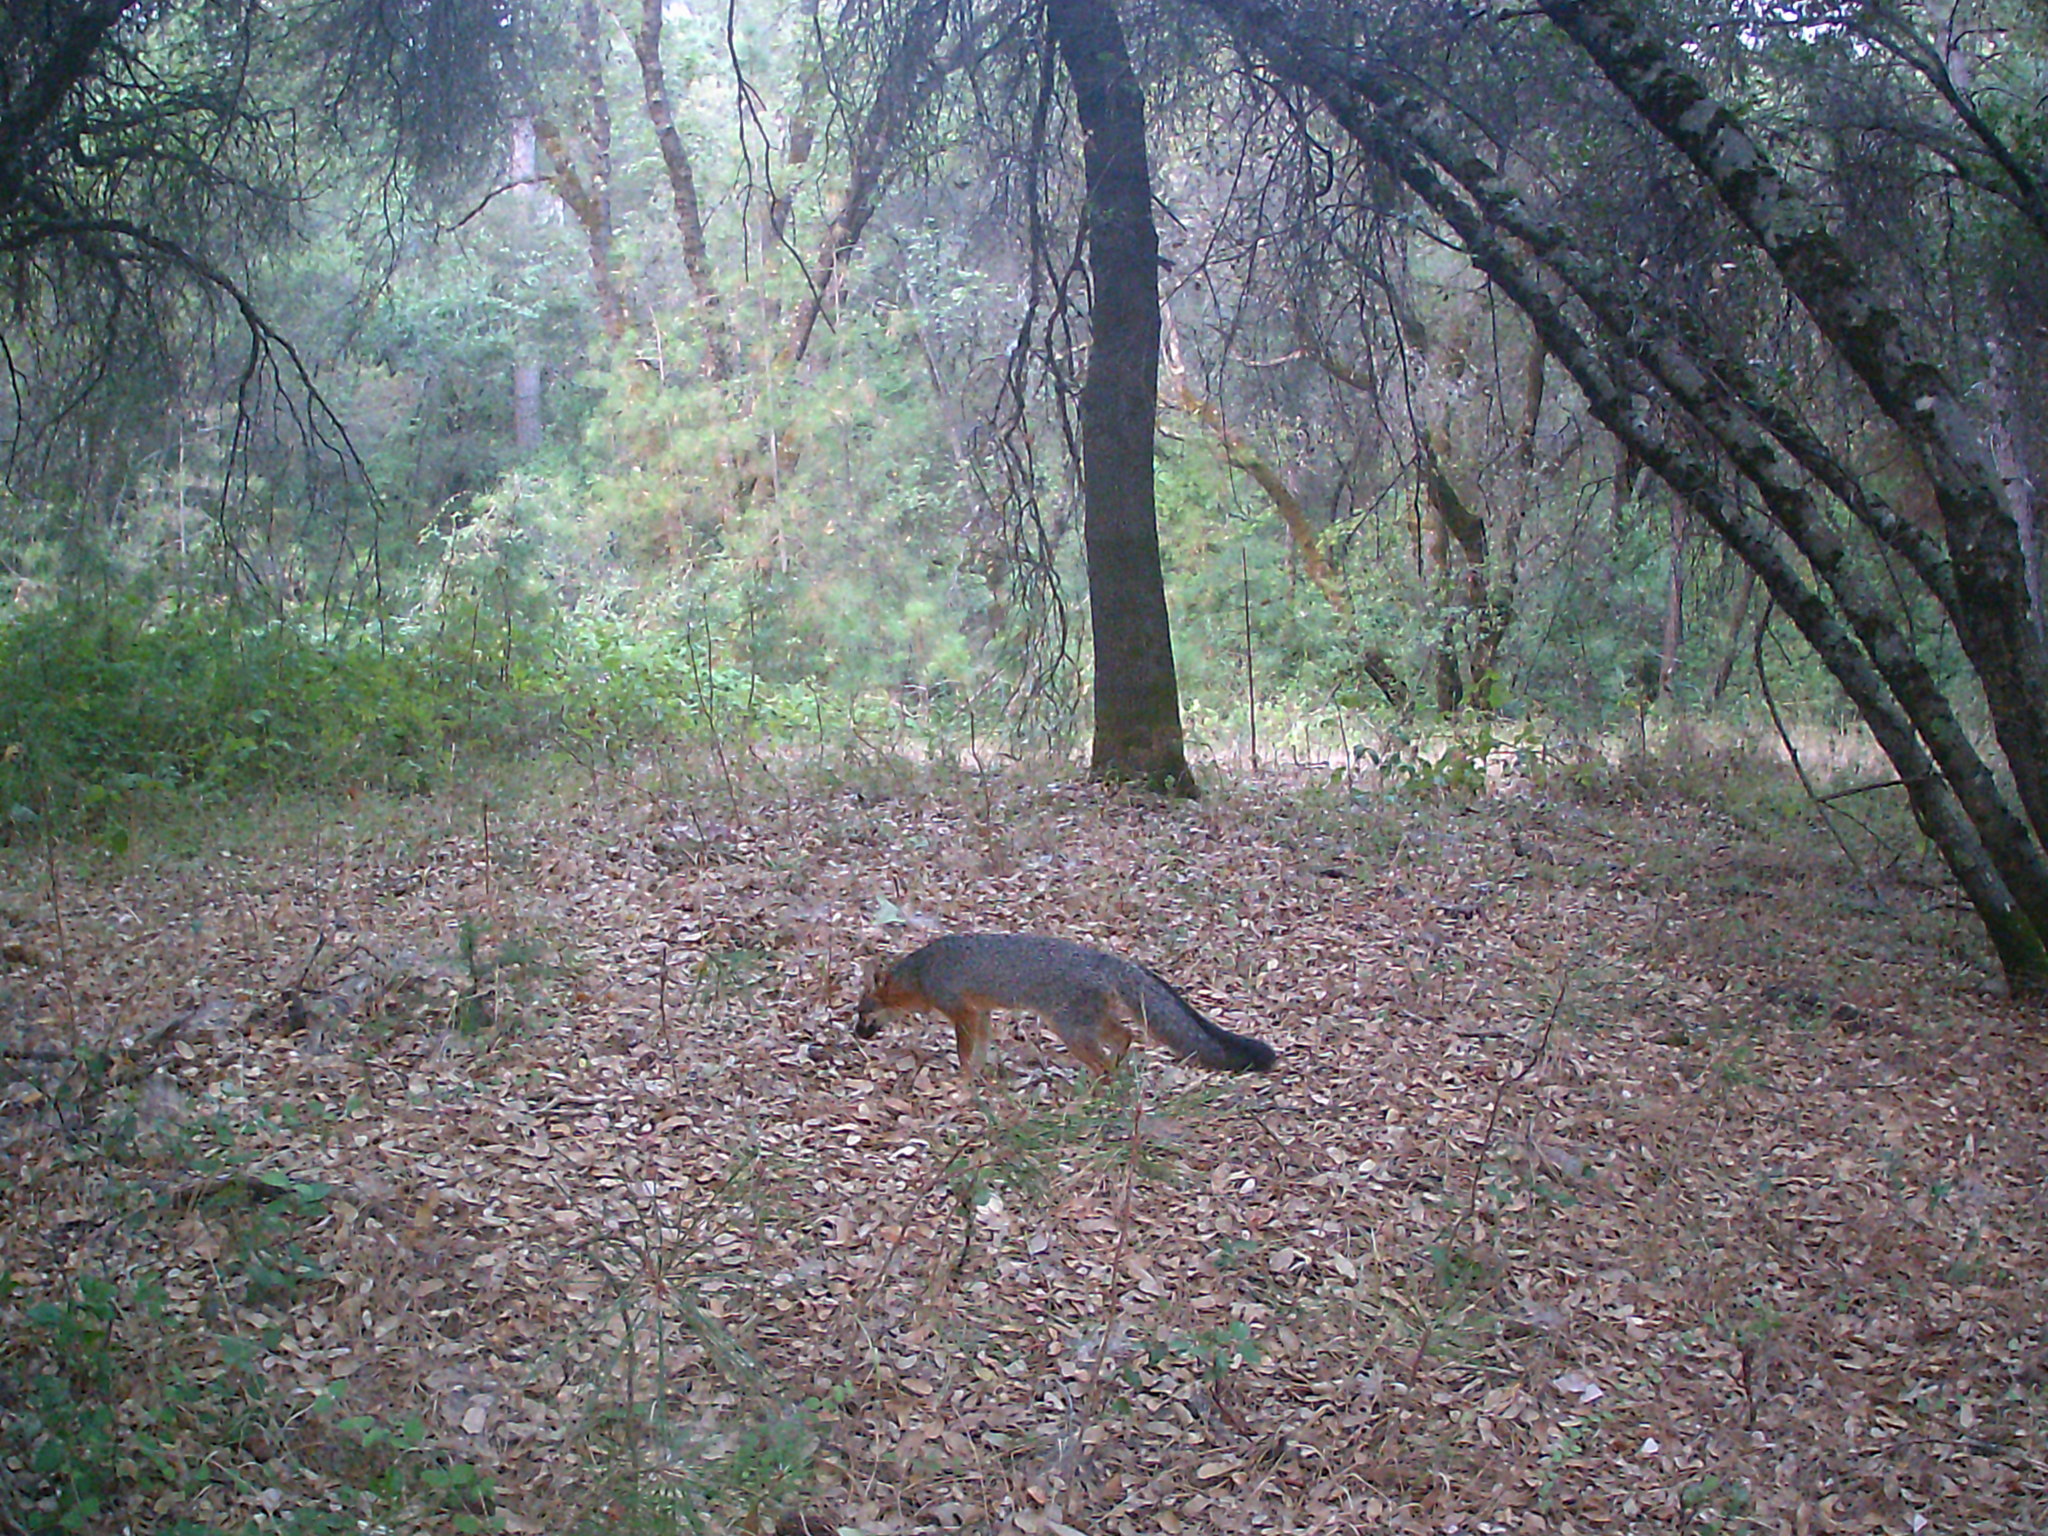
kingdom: Animalia
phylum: Chordata
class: Mammalia
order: Carnivora
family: Canidae
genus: Urocyon
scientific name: Urocyon cinereoargenteus
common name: Gray fox
